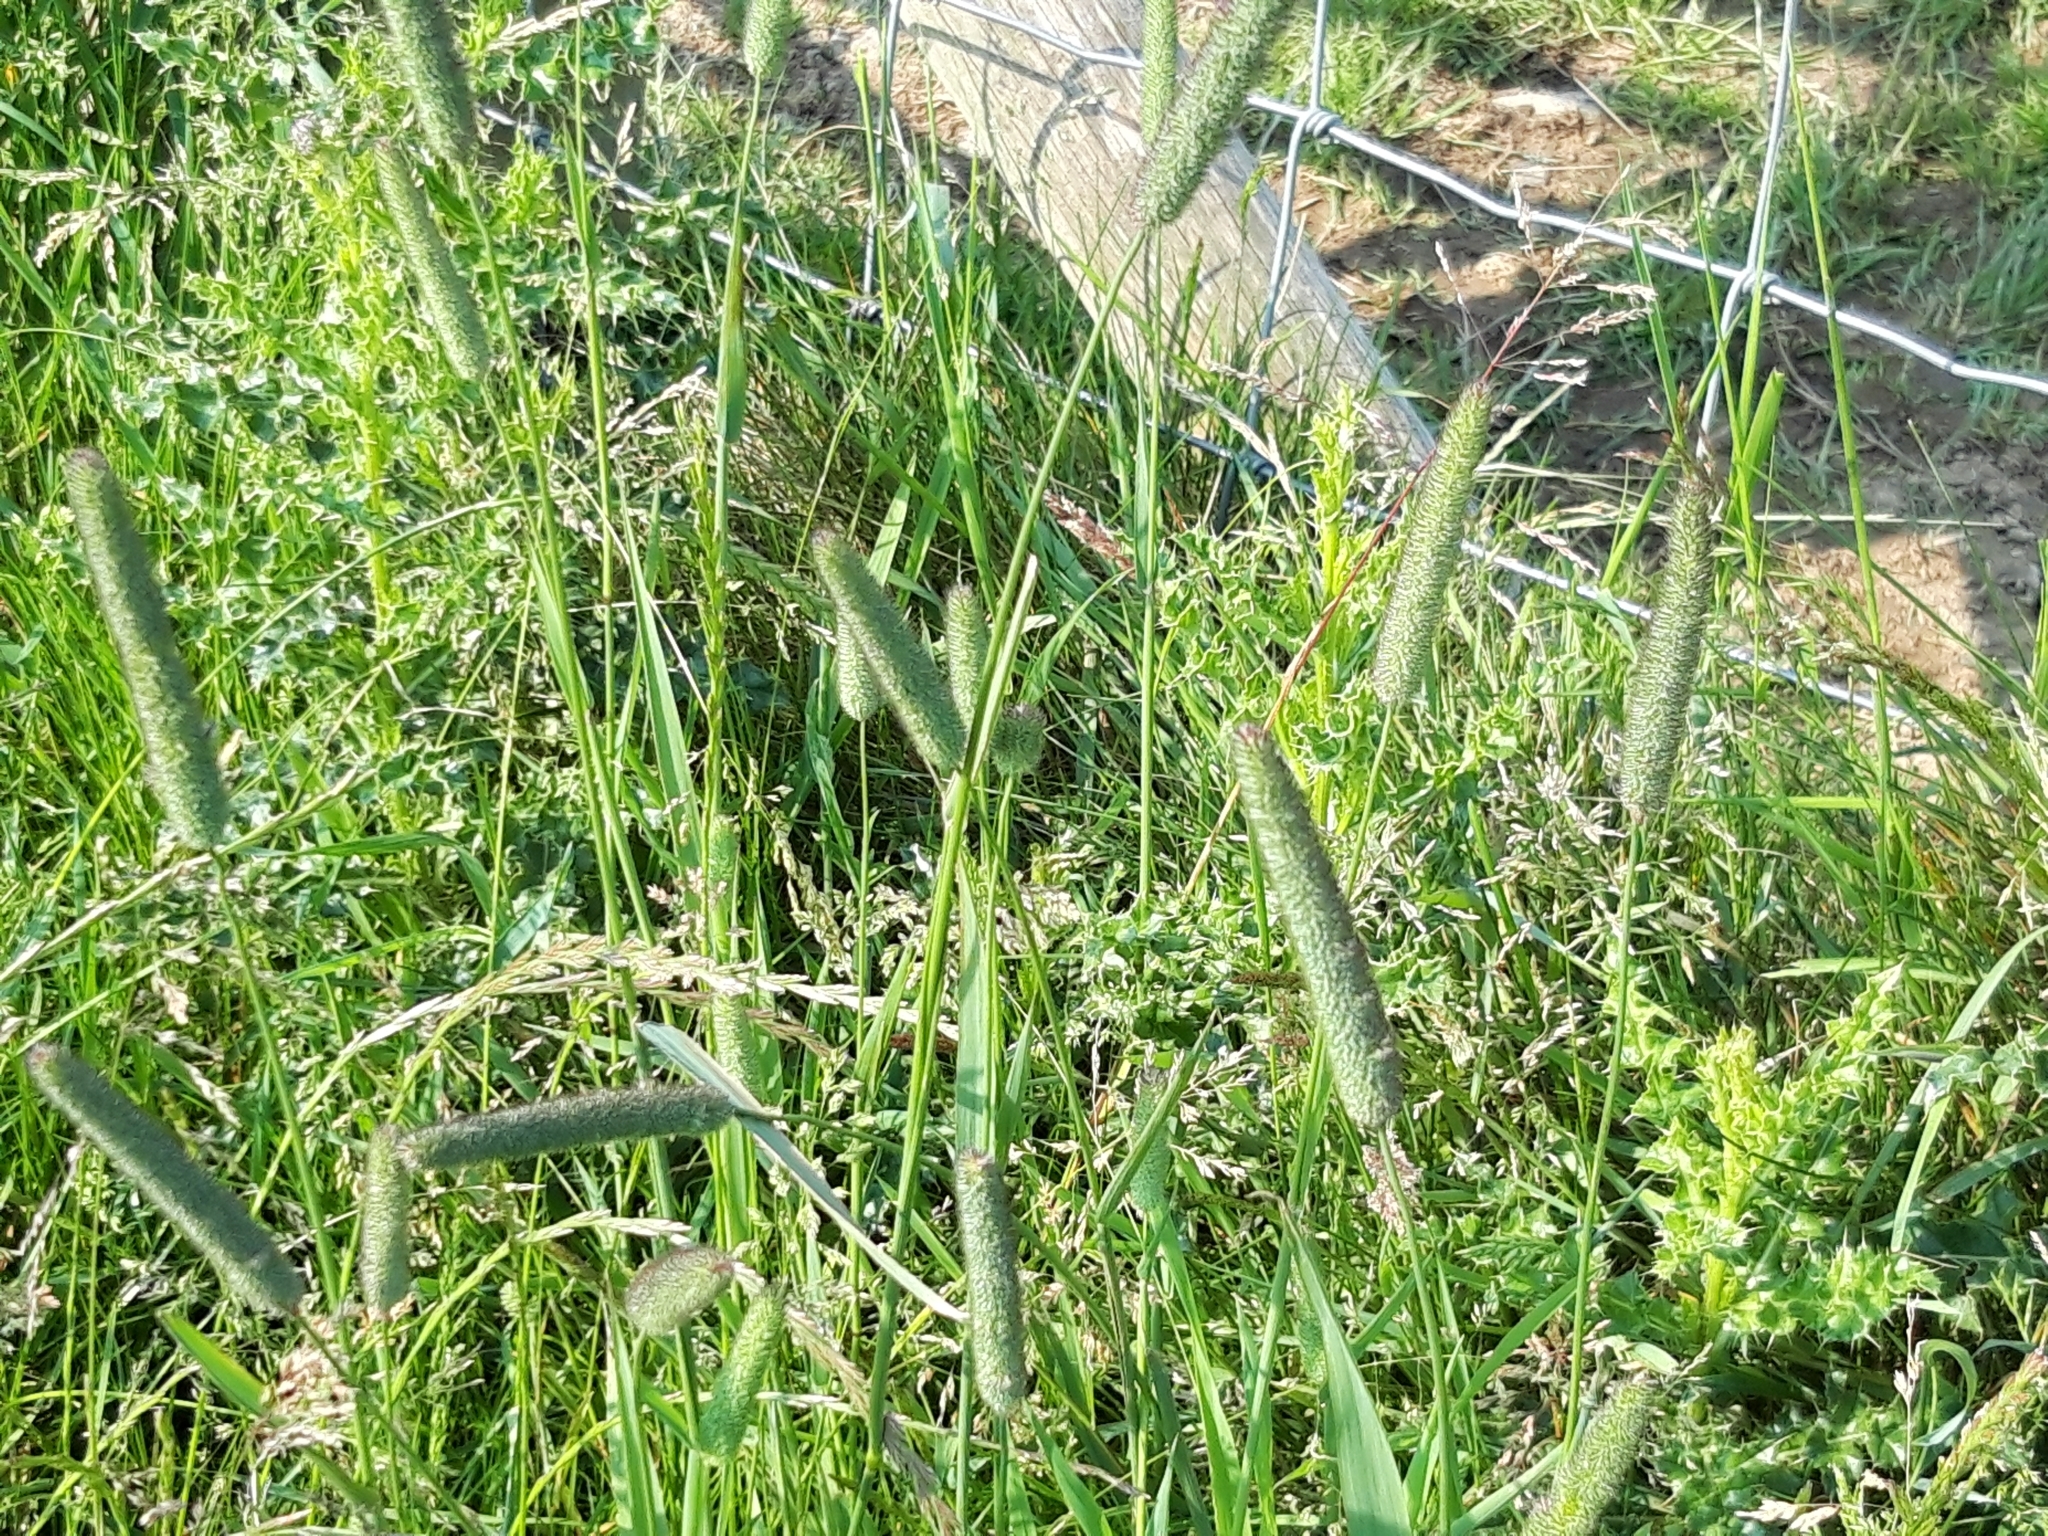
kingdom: Plantae
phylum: Tracheophyta
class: Liliopsida
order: Poales
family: Poaceae
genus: Phleum
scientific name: Phleum pratense
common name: Timothy grass
